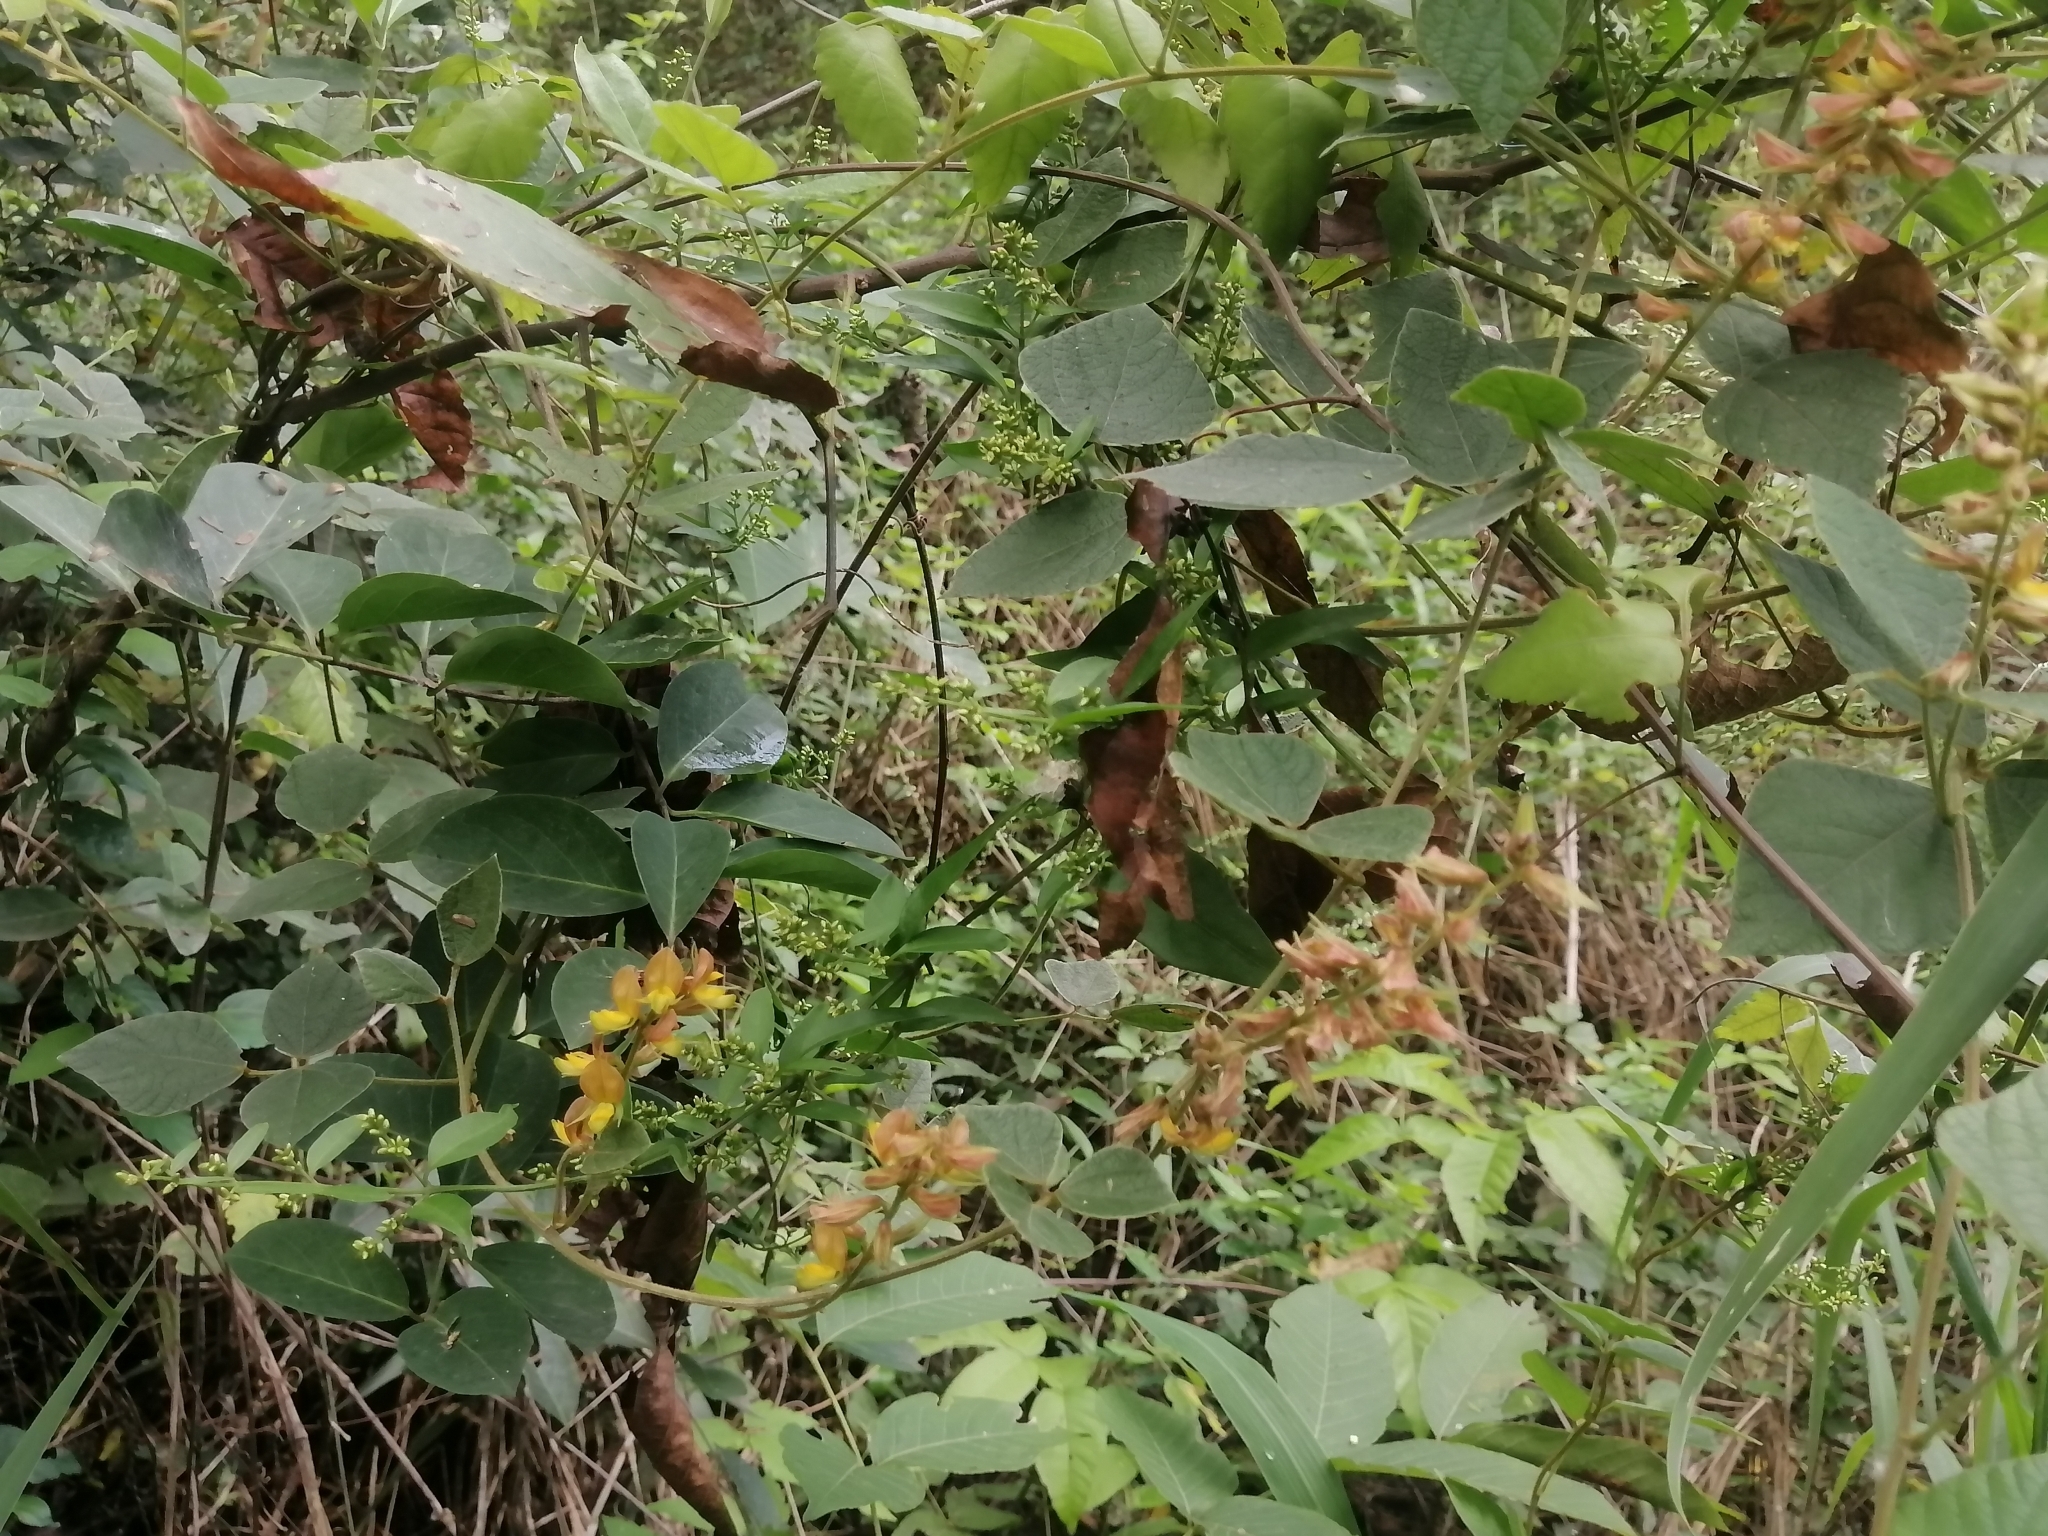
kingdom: Plantae
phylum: Tracheophyta
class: Magnoliopsida
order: Fabales
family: Fabaceae
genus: Rhynchosia
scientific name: Rhynchosia longeracemosa
